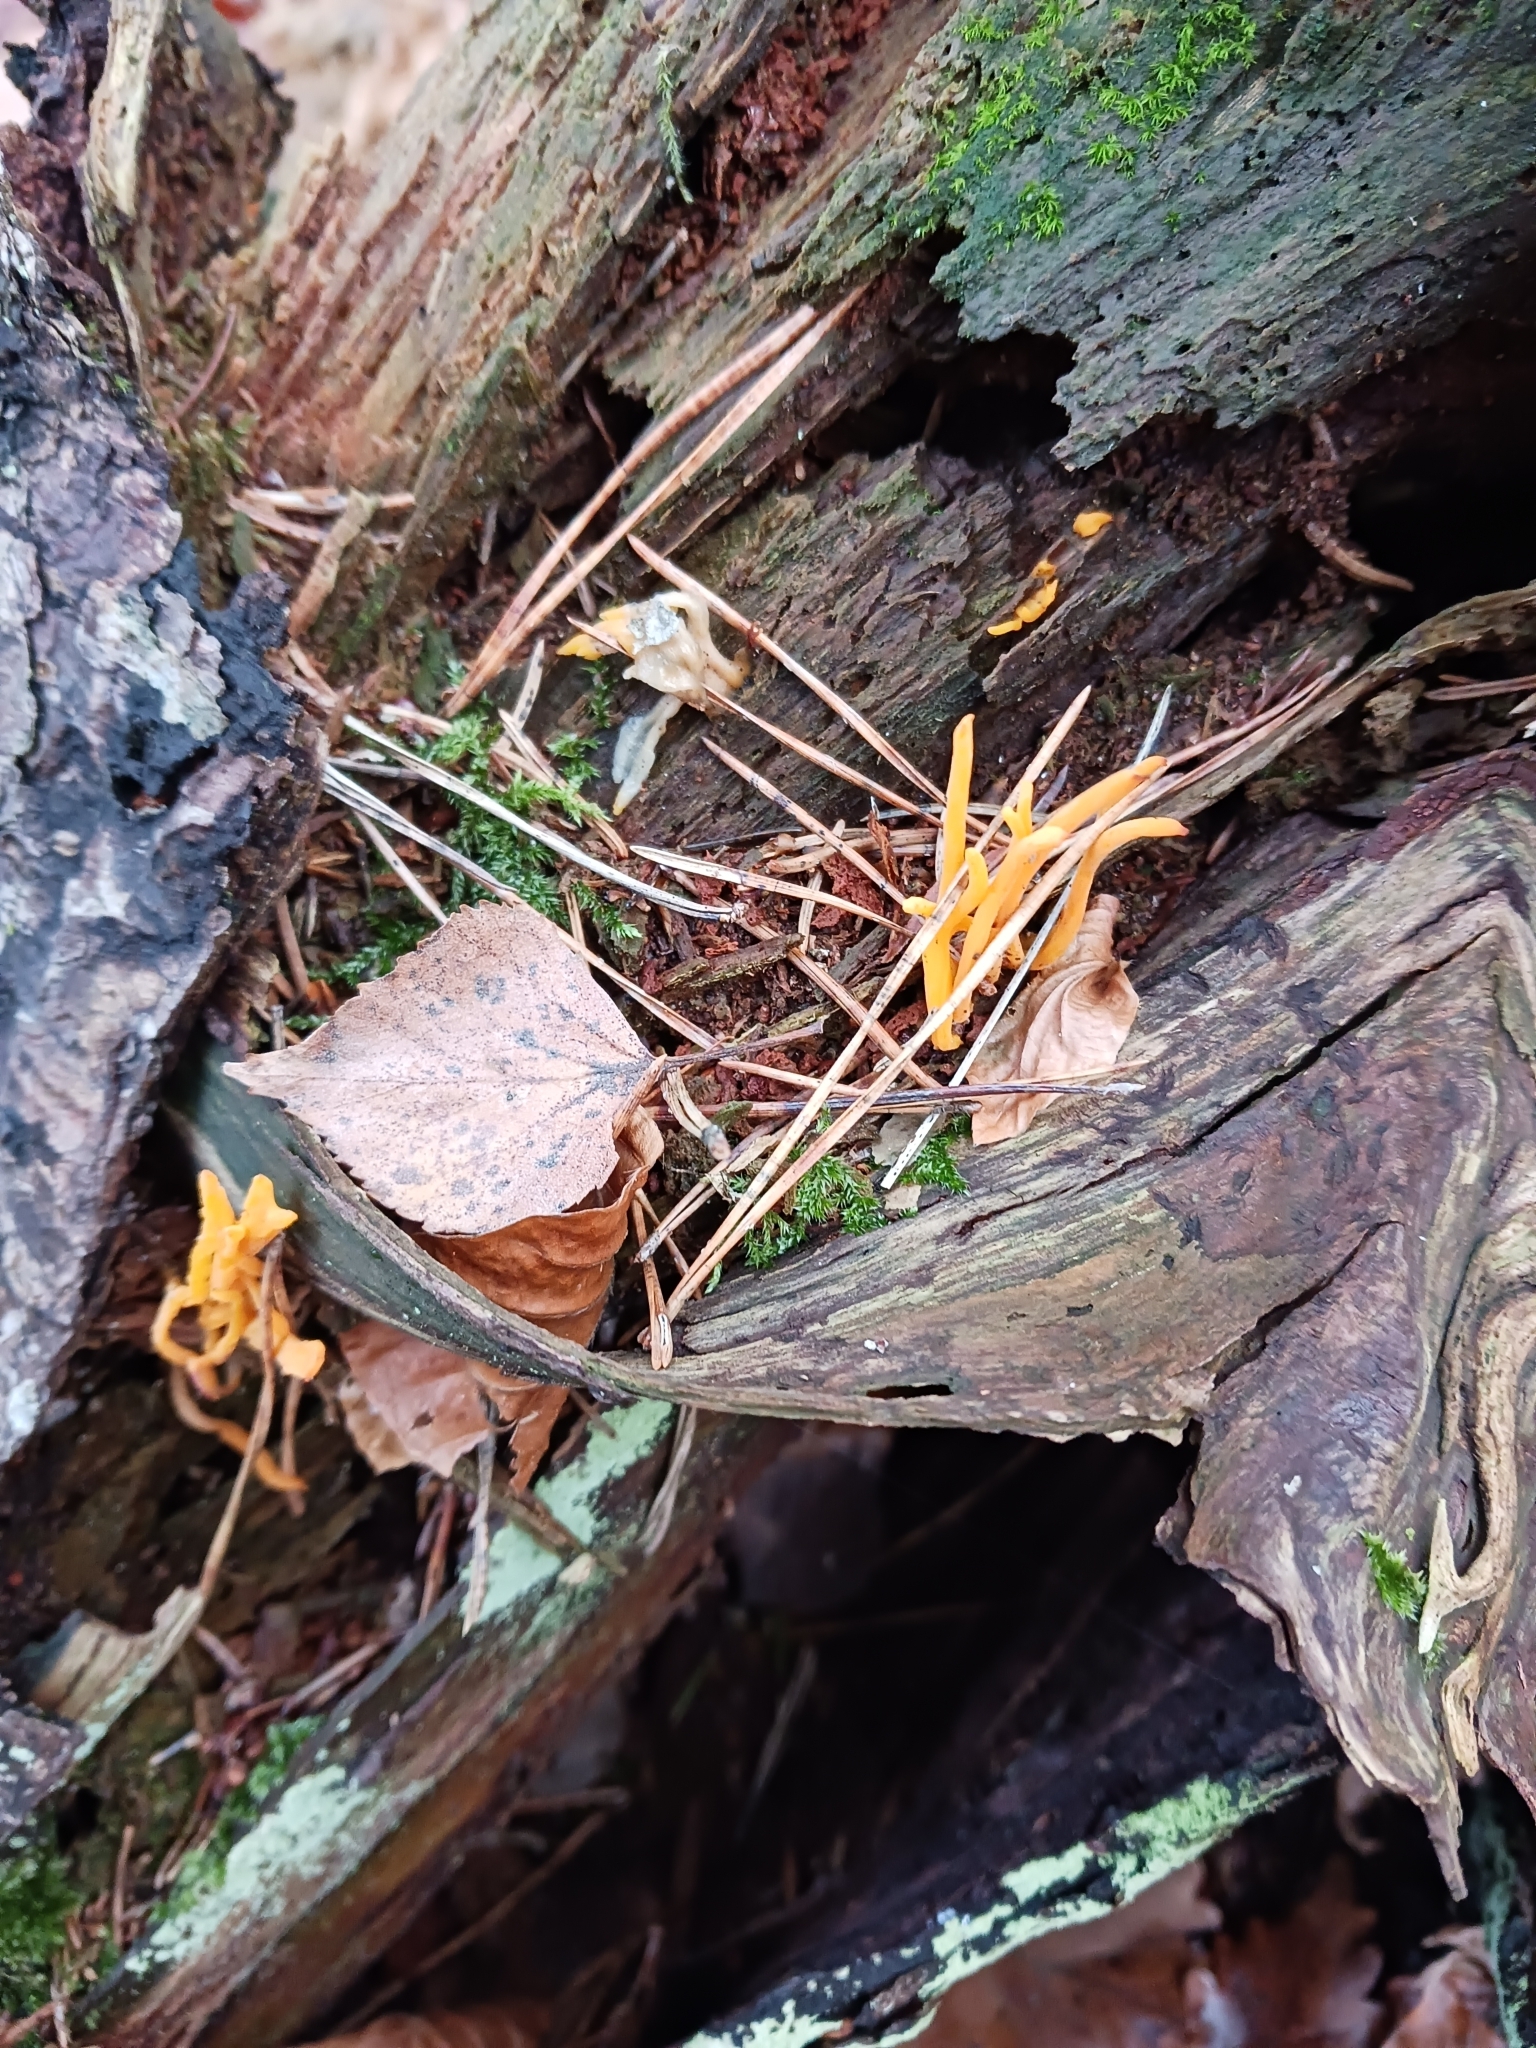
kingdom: Fungi
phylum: Basidiomycota
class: Dacrymycetes
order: Dacrymycetales
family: Dacrymycetaceae
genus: Calocera
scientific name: Calocera viscosa
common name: Yellow stagshorn
